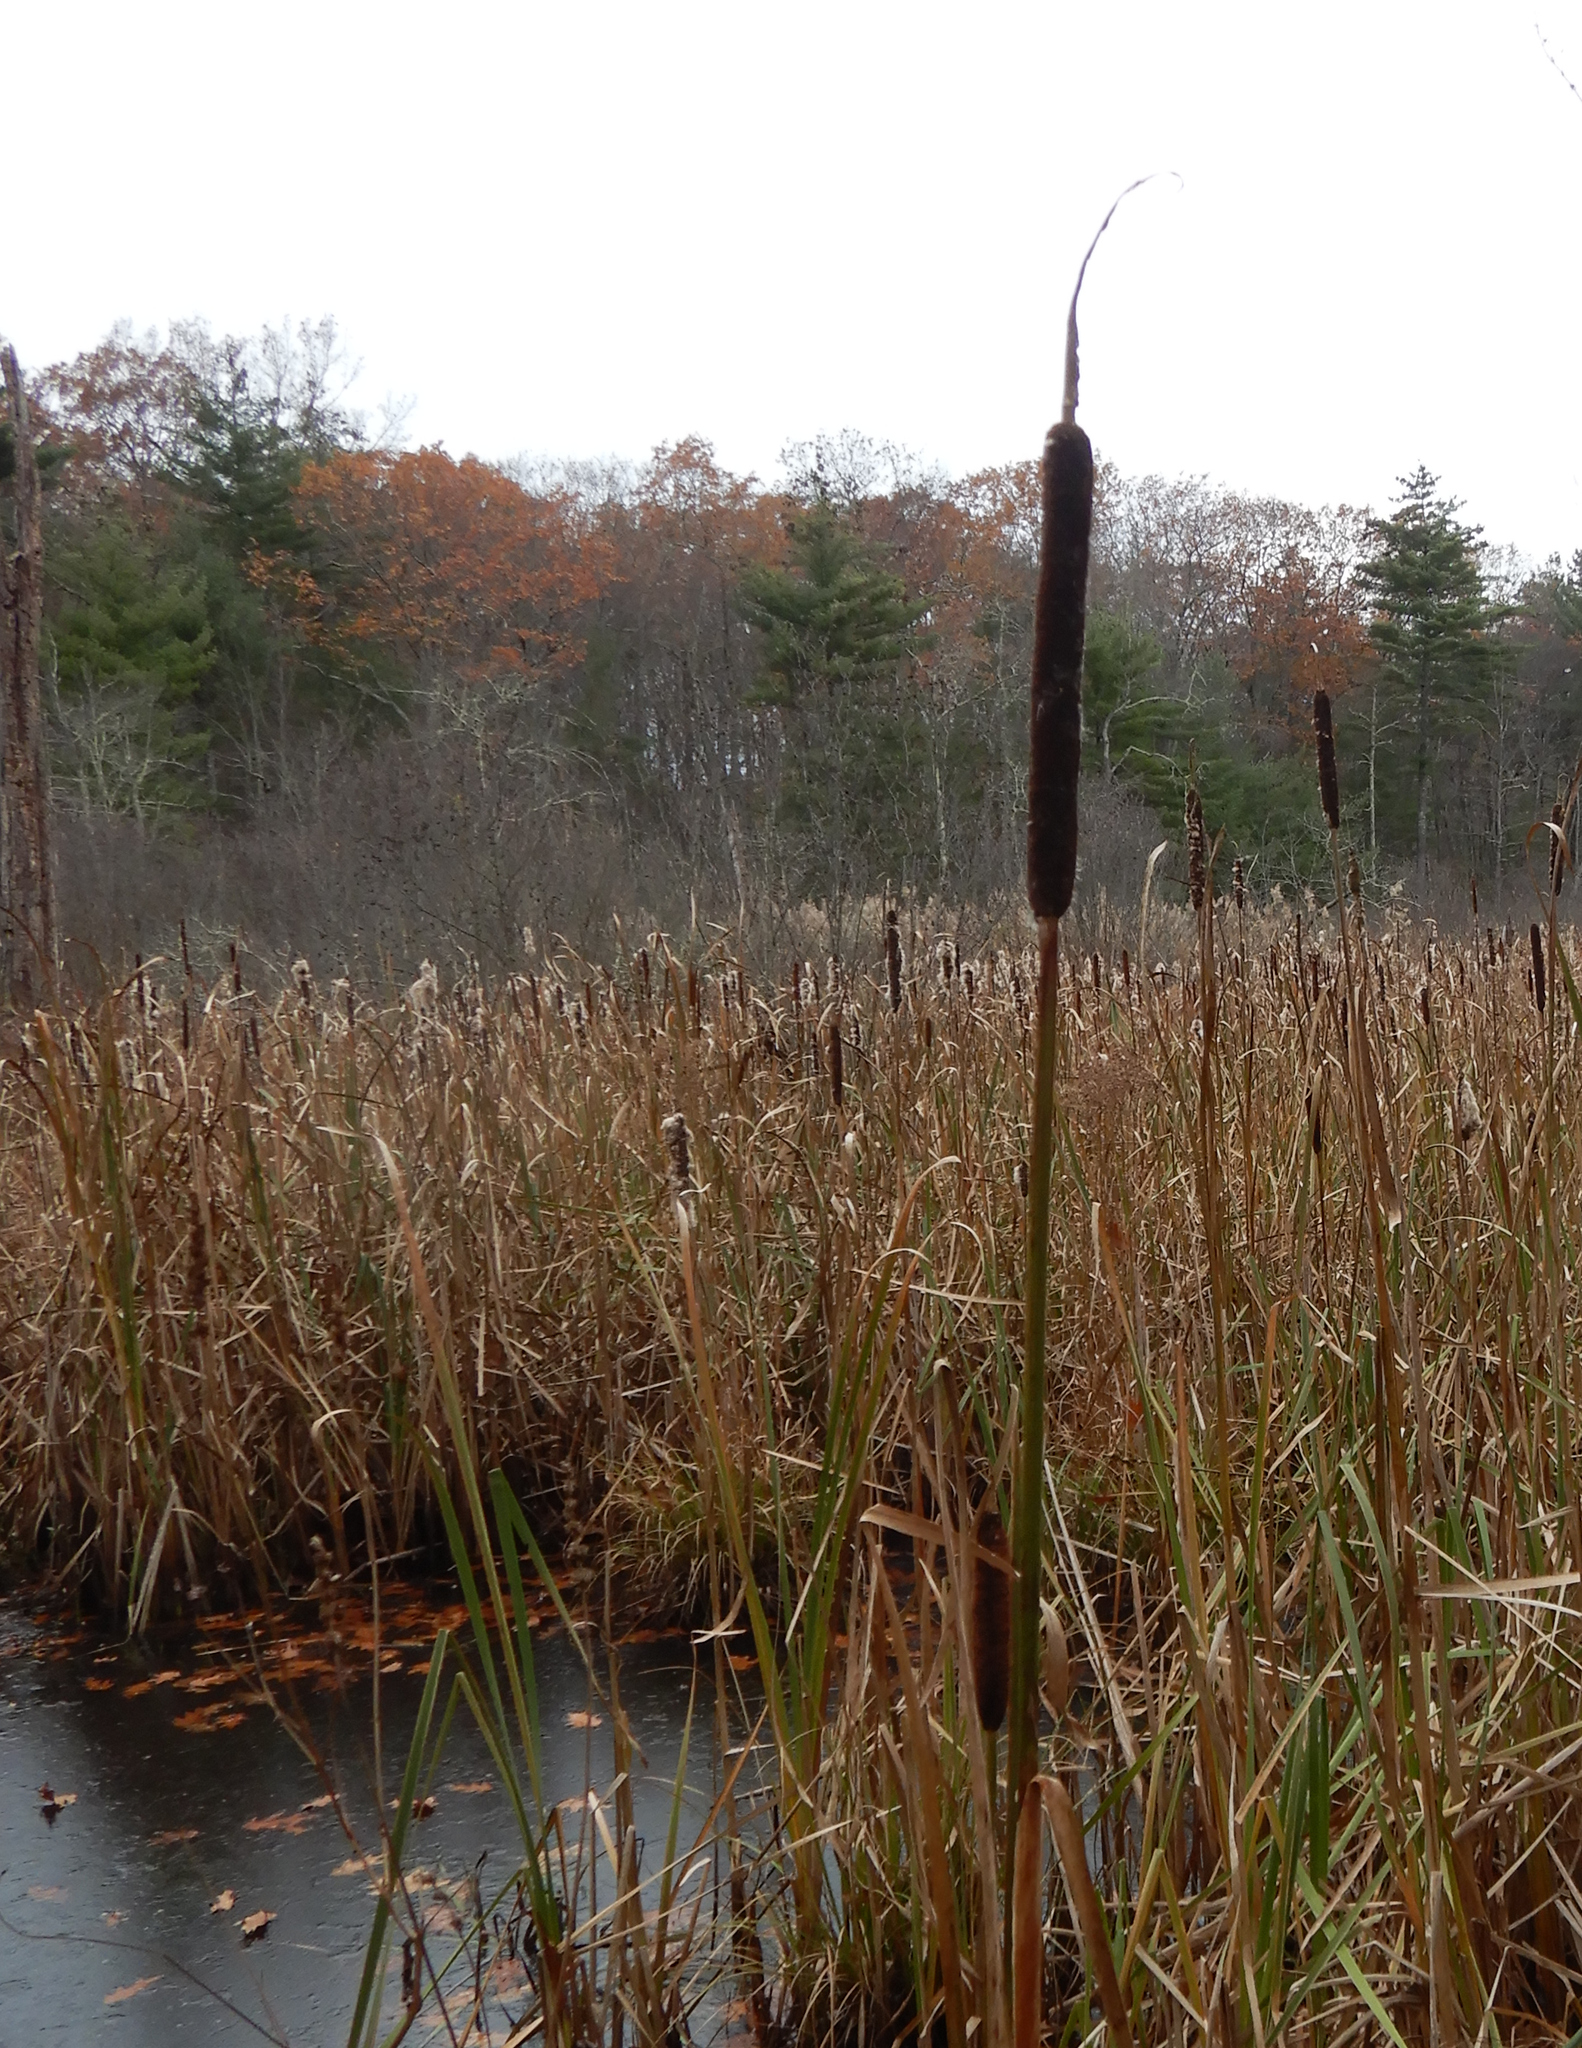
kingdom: Plantae
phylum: Tracheophyta
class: Liliopsida
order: Poales
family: Typhaceae
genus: Typha
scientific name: Typha latifolia
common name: Broadleaf cattail
